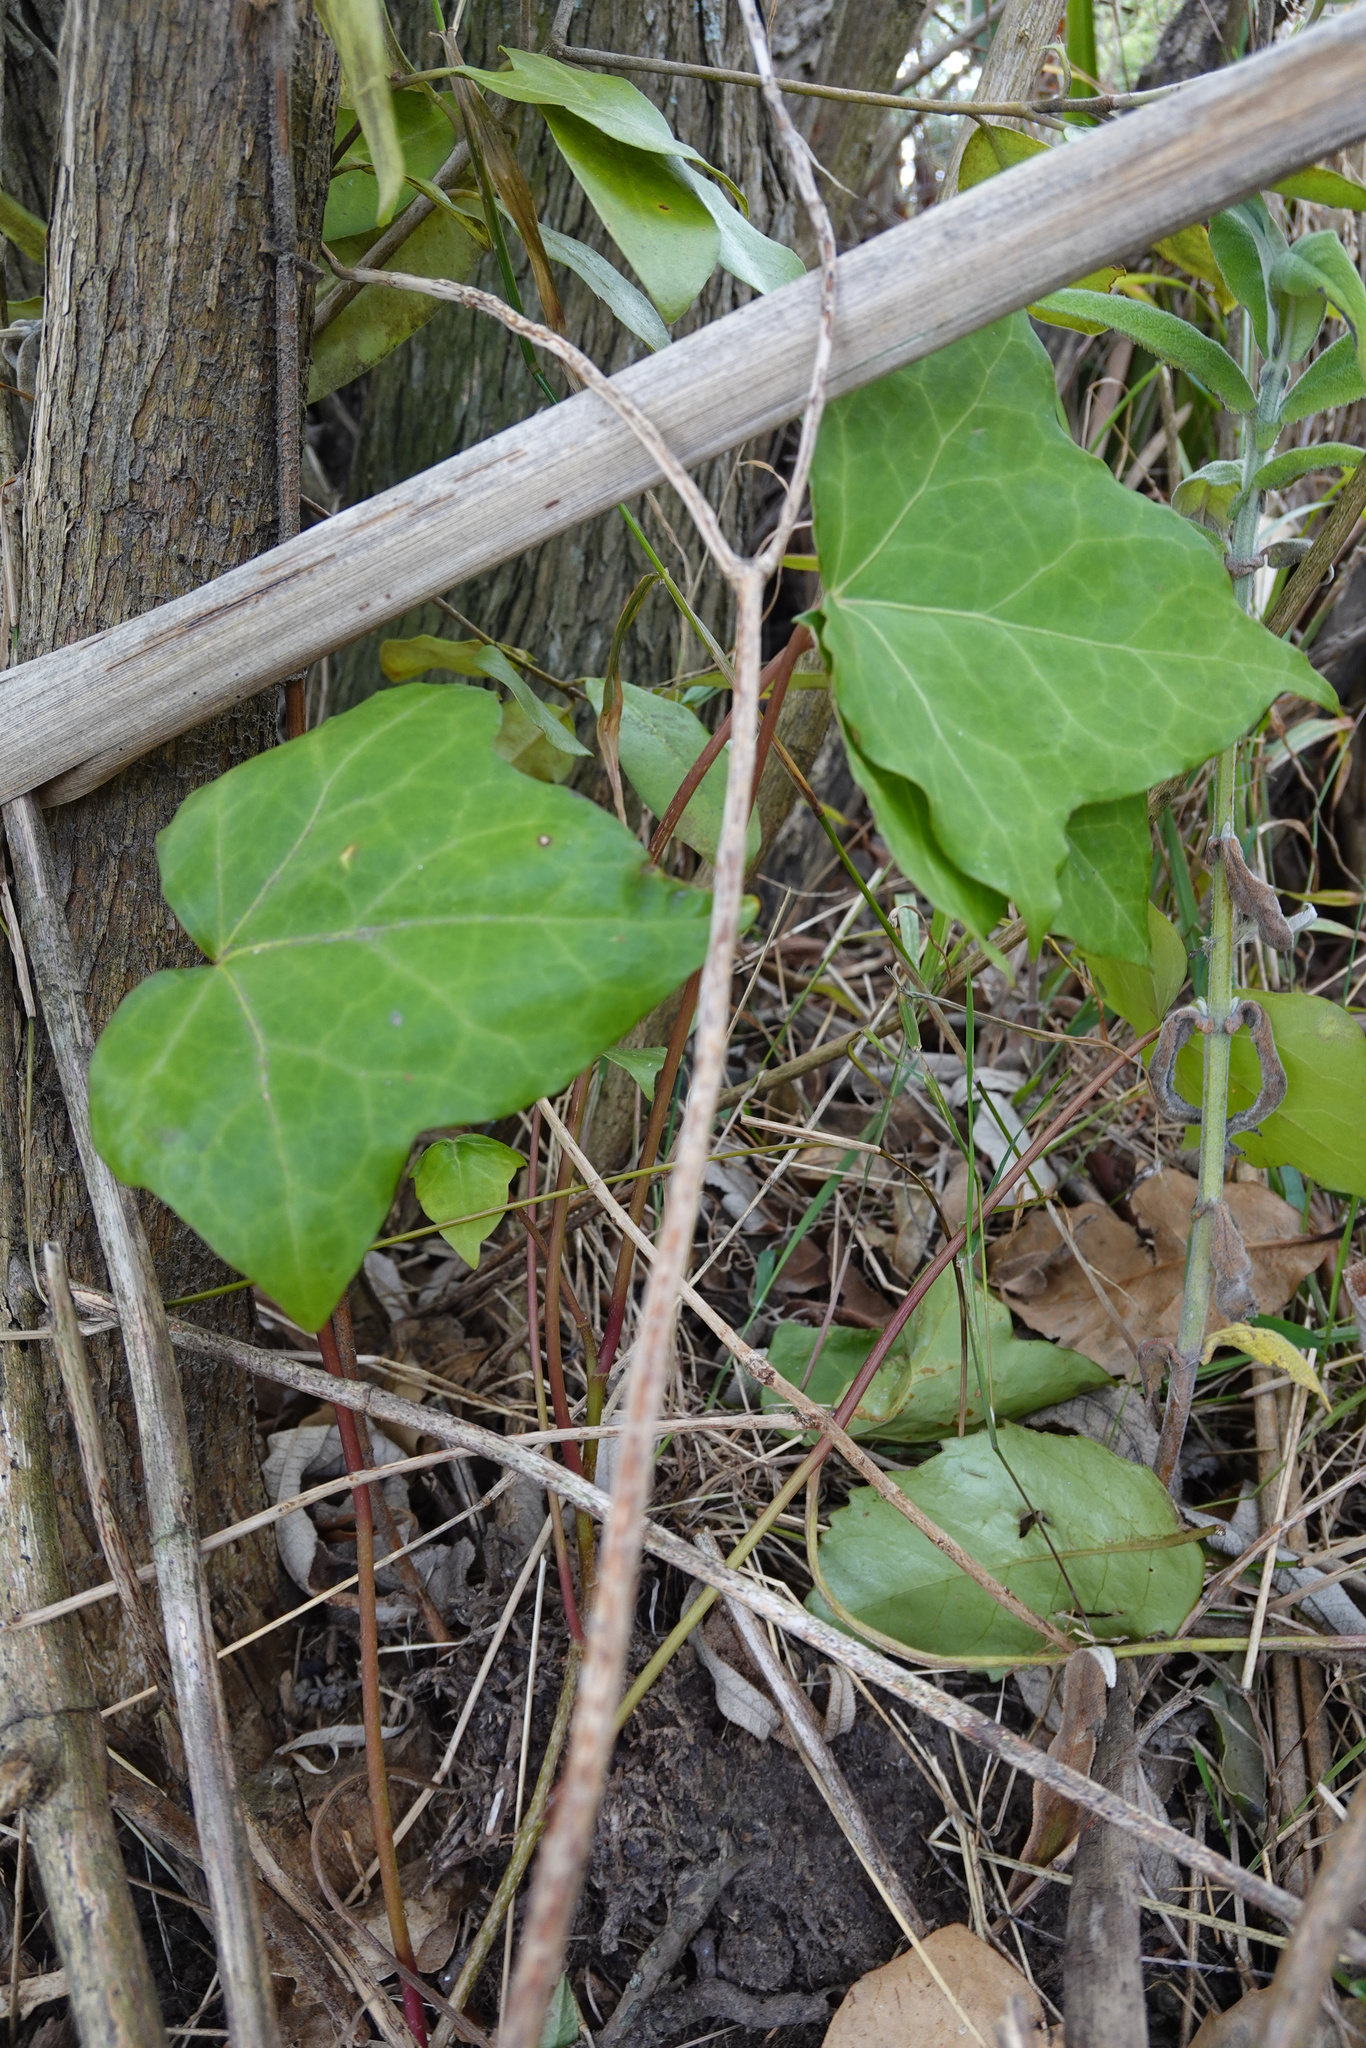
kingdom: Plantae
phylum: Tracheophyta
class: Magnoliopsida
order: Apiales
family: Araliaceae
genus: Hedera
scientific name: Hedera helix
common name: Ivy
